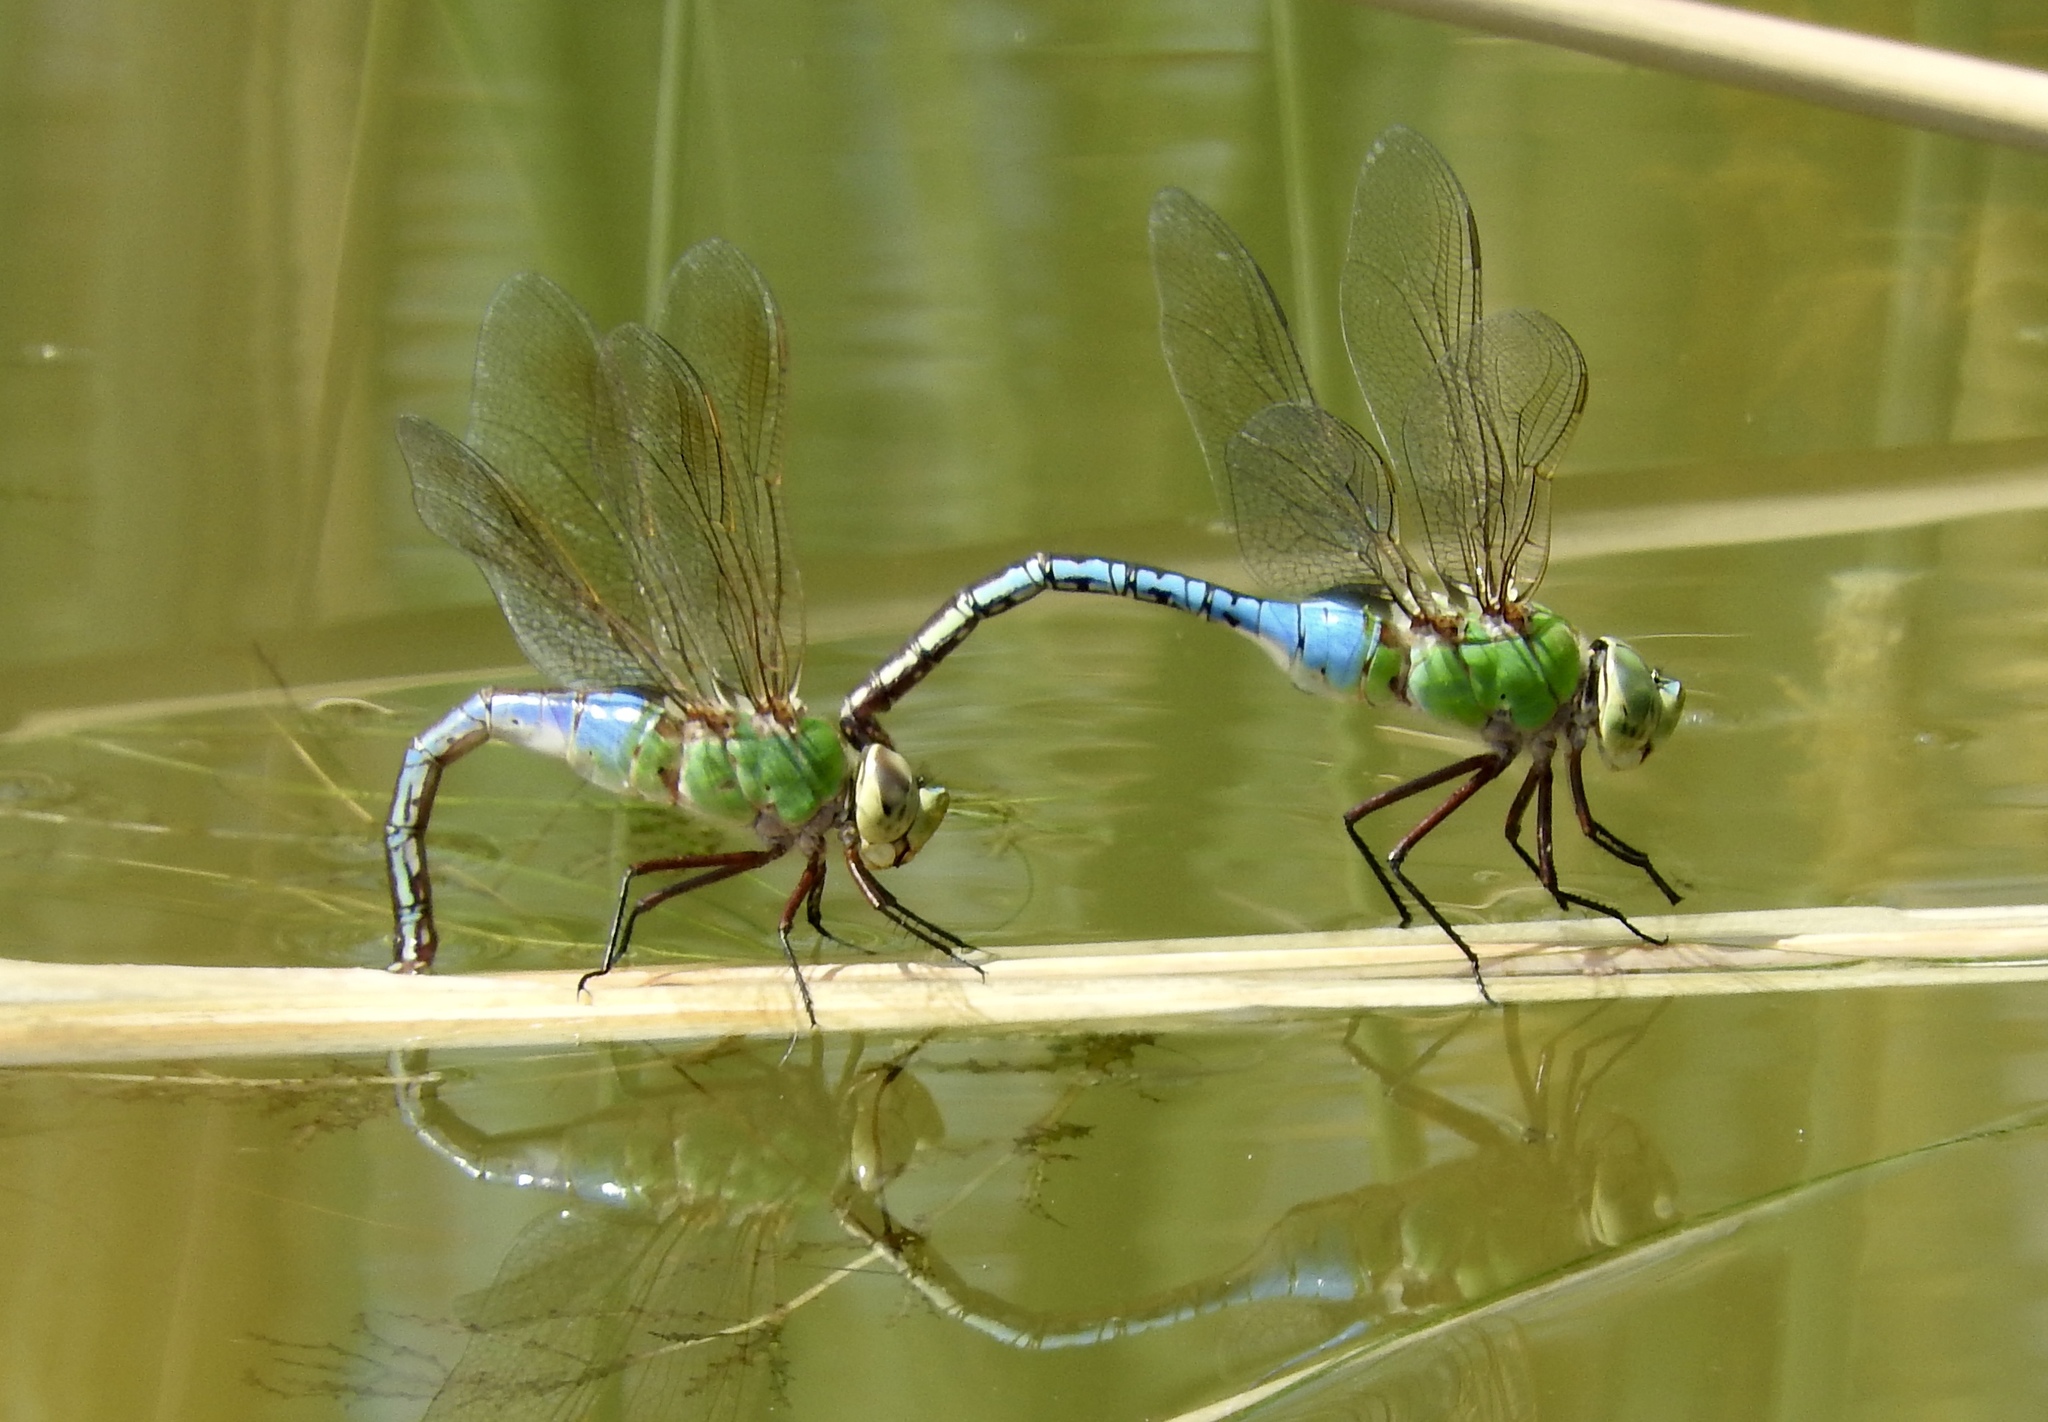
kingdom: Animalia
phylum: Arthropoda
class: Insecta
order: Odonata
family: Aeshnidae
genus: Anax
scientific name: Anax junius
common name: Common green darner
